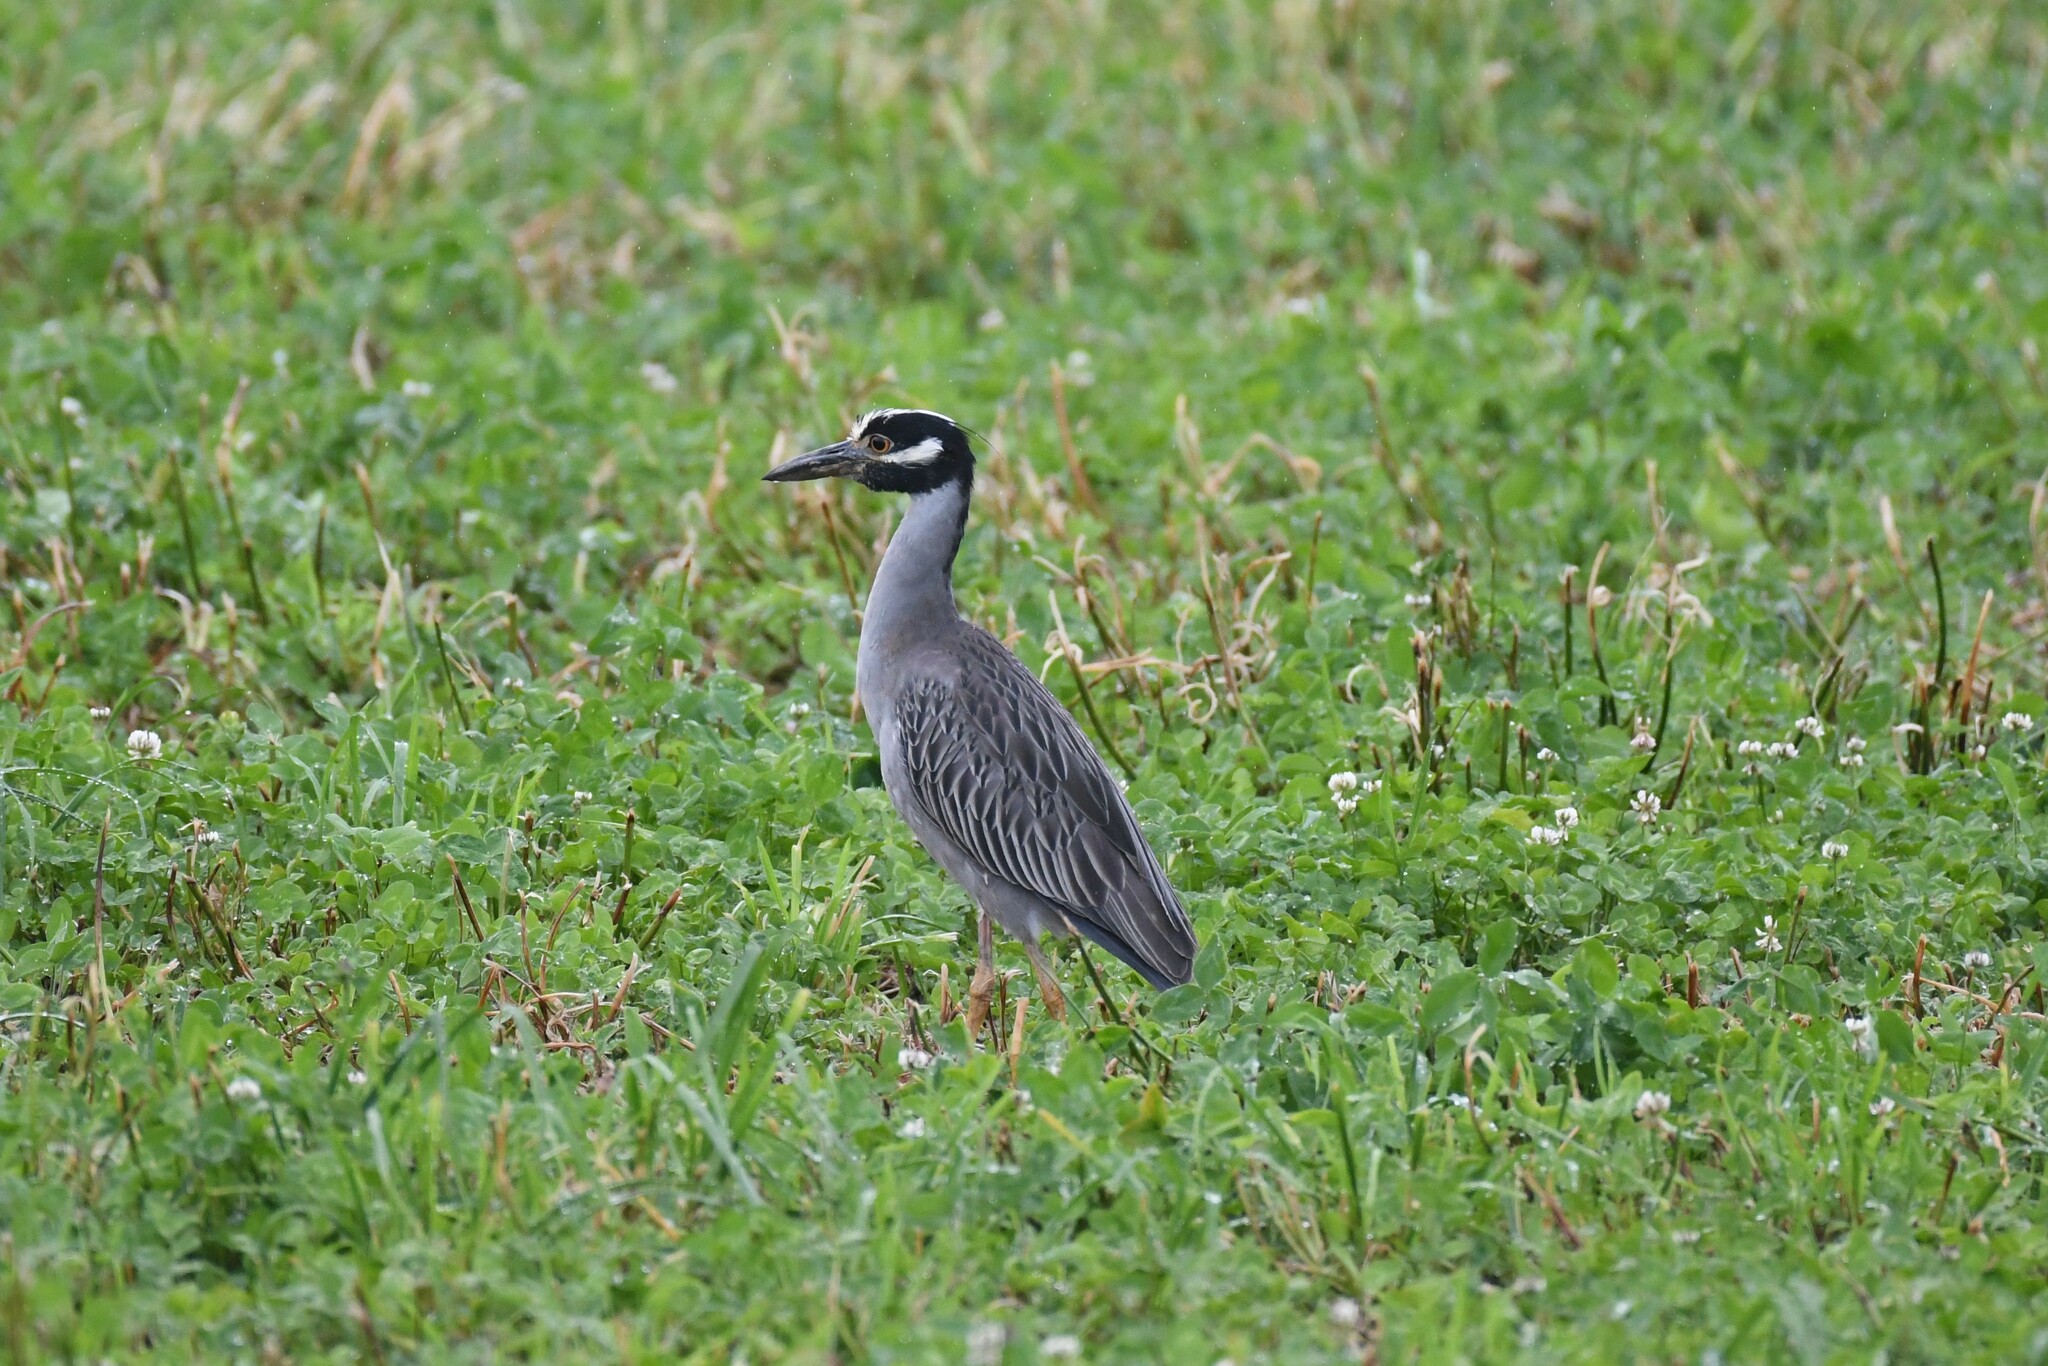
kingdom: Animalia
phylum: Chordata
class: Aves
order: Pelecaniformes
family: Ardeidae
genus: Nyctanassa
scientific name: Nyctanassa violacea
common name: Yellow-crowned night heron
